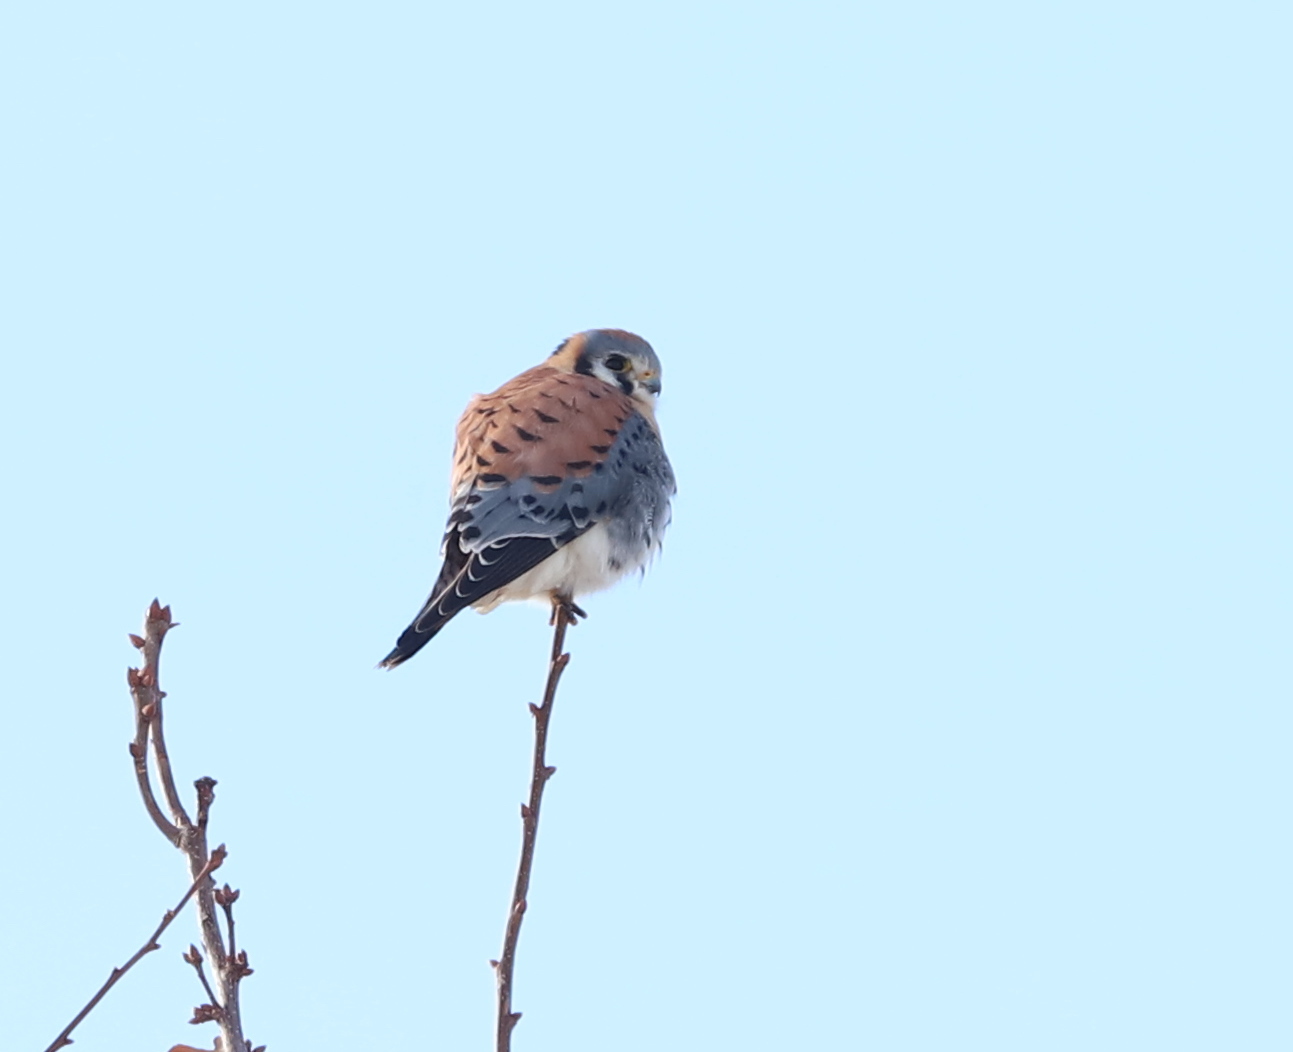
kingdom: Animalia
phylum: Chordata
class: Aves
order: Falconiformes
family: Falconidae
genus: Falco
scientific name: Falco sparverius
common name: American kestrel
